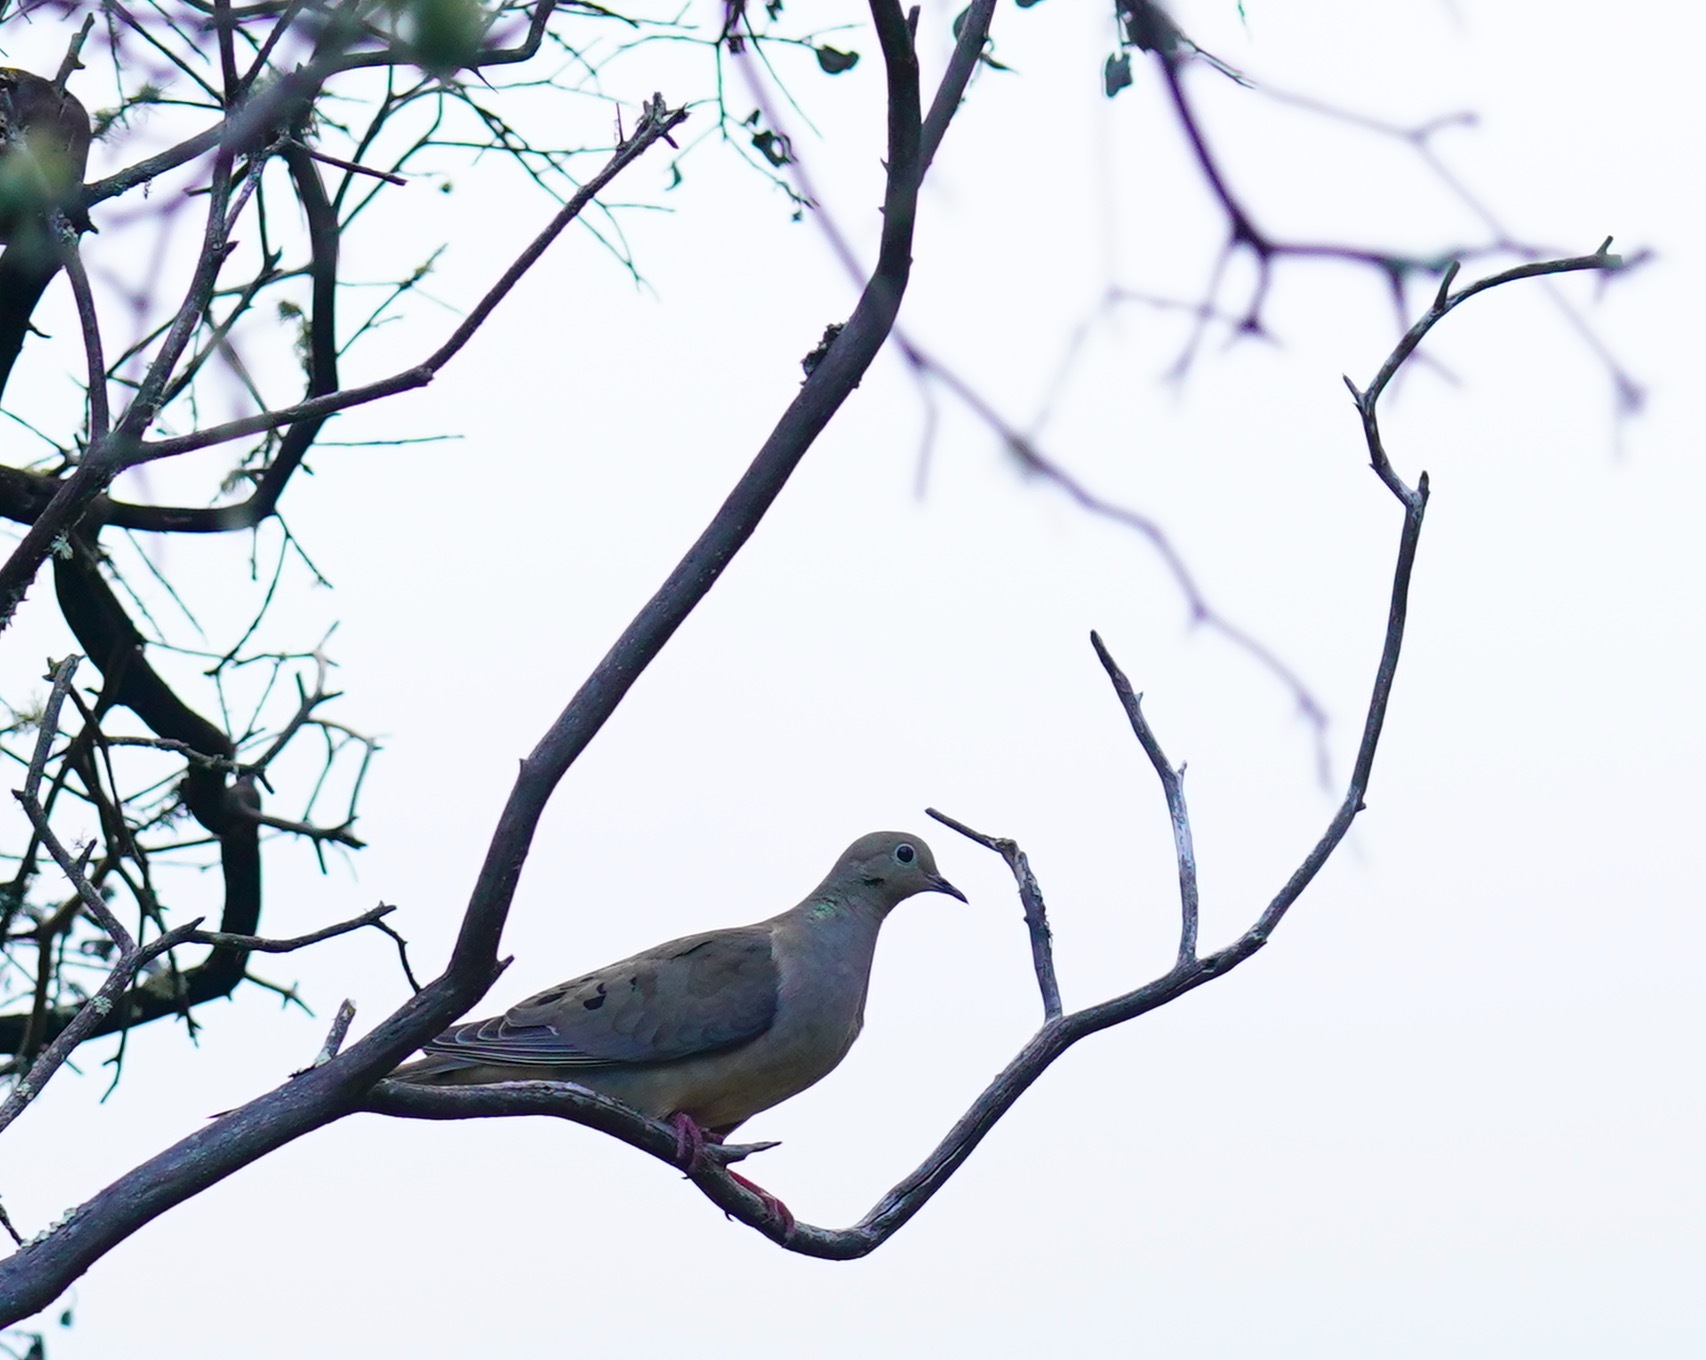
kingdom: Animalia
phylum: Chordata
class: Aves
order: Columbiformes
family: Columbidae
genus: Zenaida
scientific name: Zenaida macroura
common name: Mourning dove
